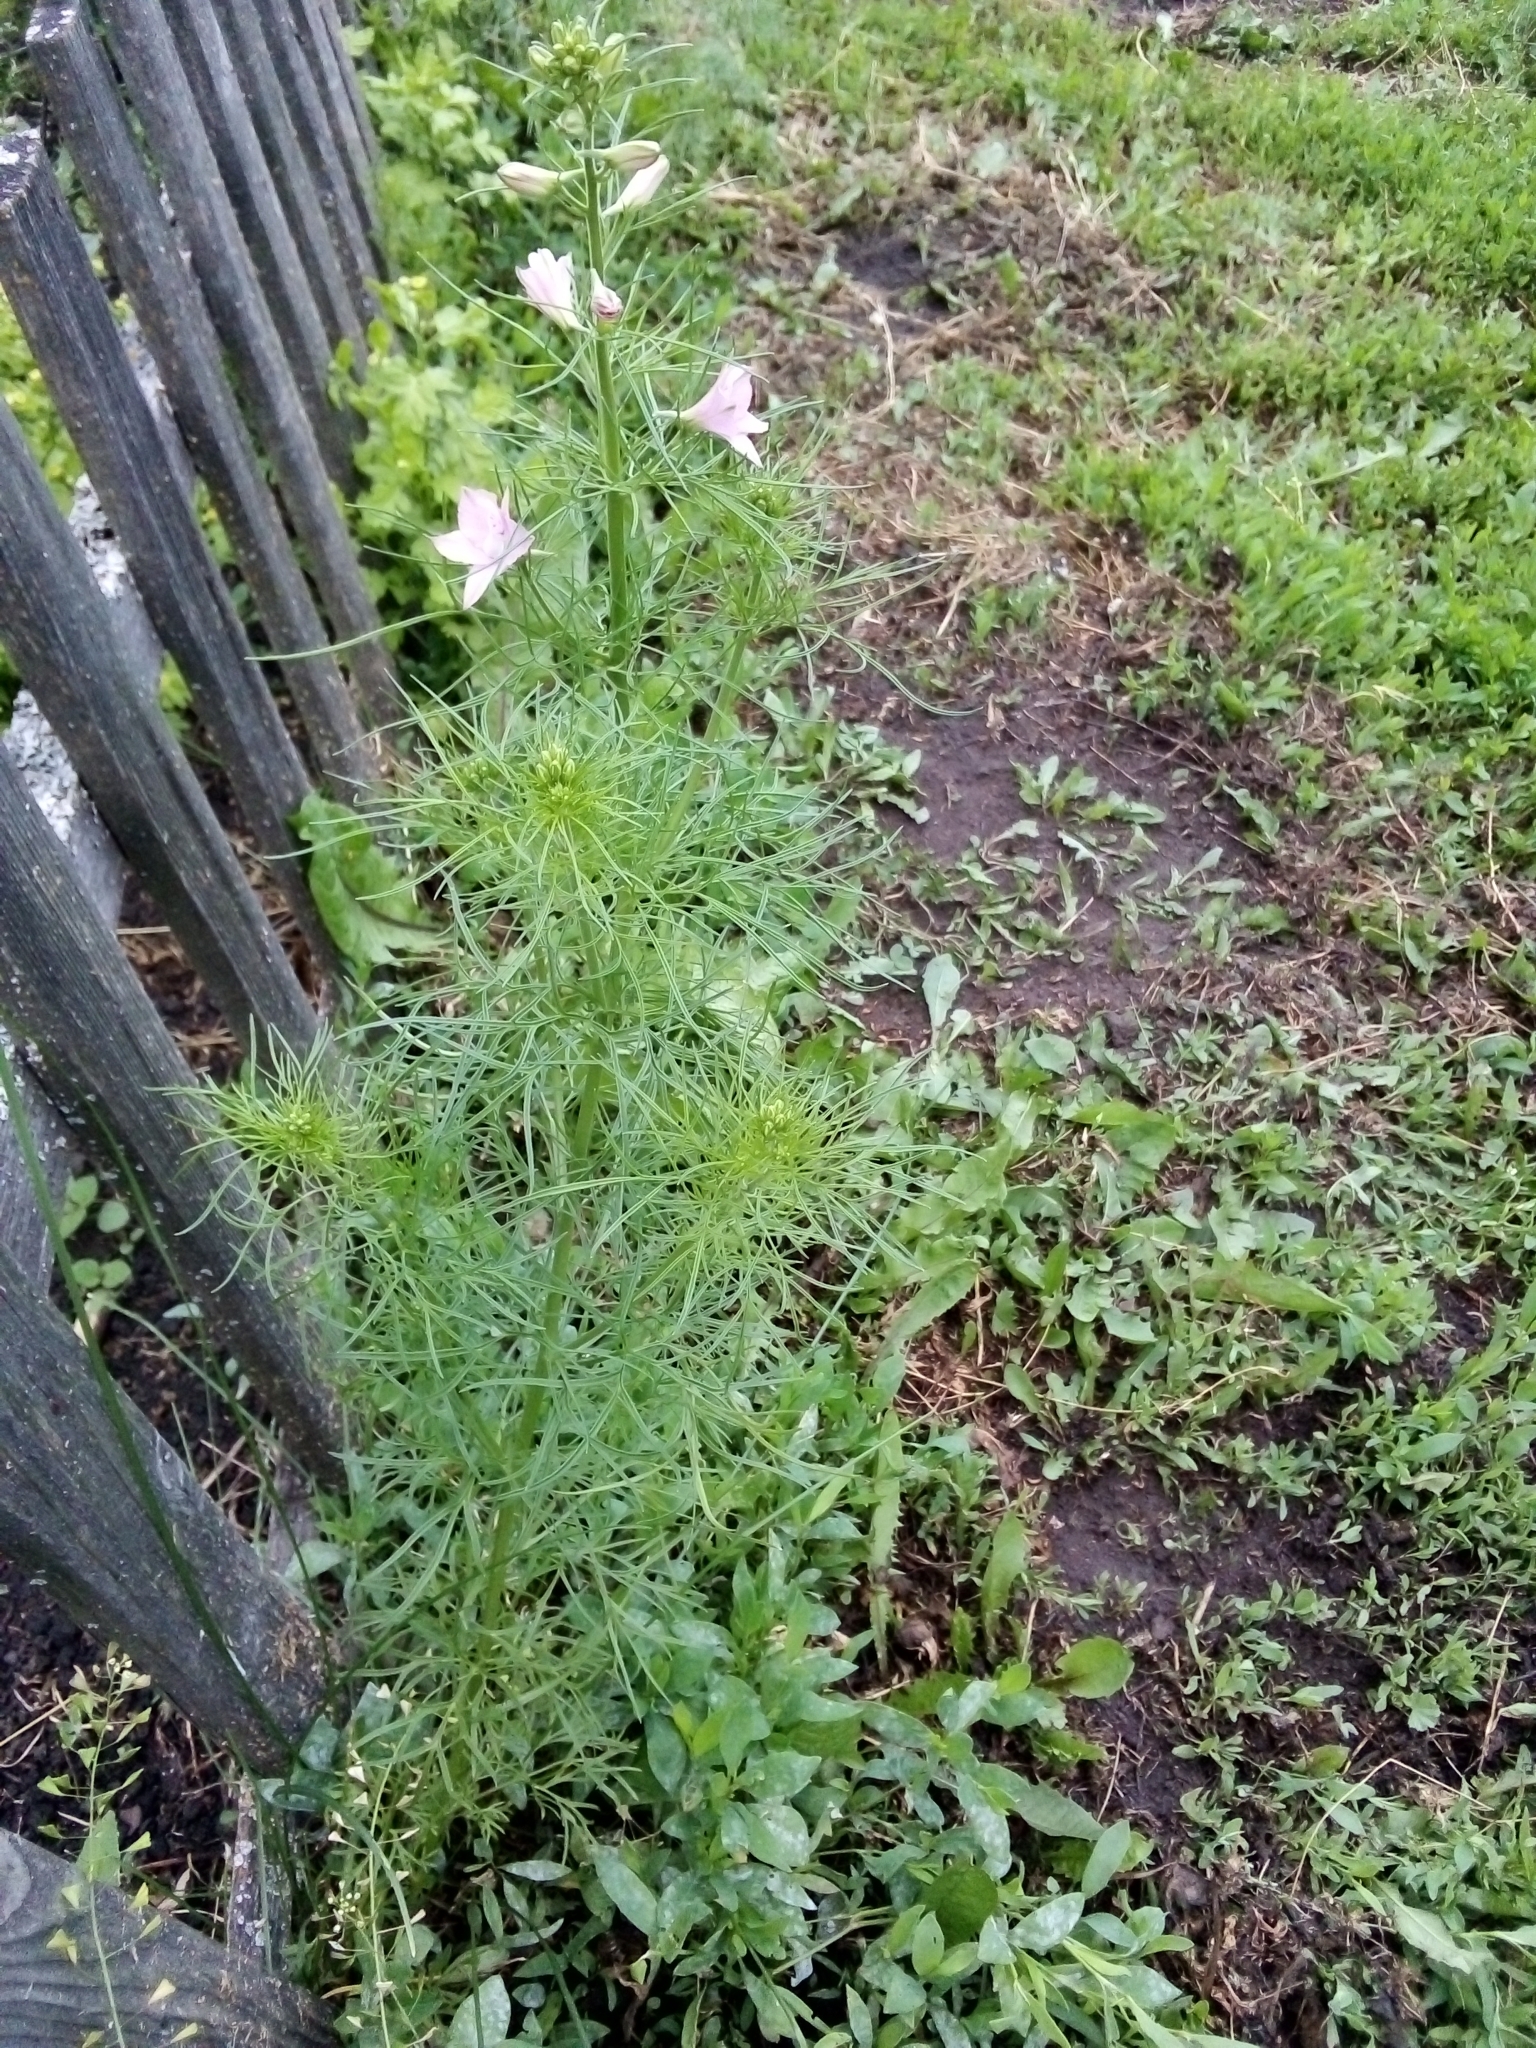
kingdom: Plantae
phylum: Tracheophyta
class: Magnoliopsida
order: Ranunculales
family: Ranunculaceae
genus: Delphinium
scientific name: Delphinium ajacis
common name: Doubtful knight's-spur
